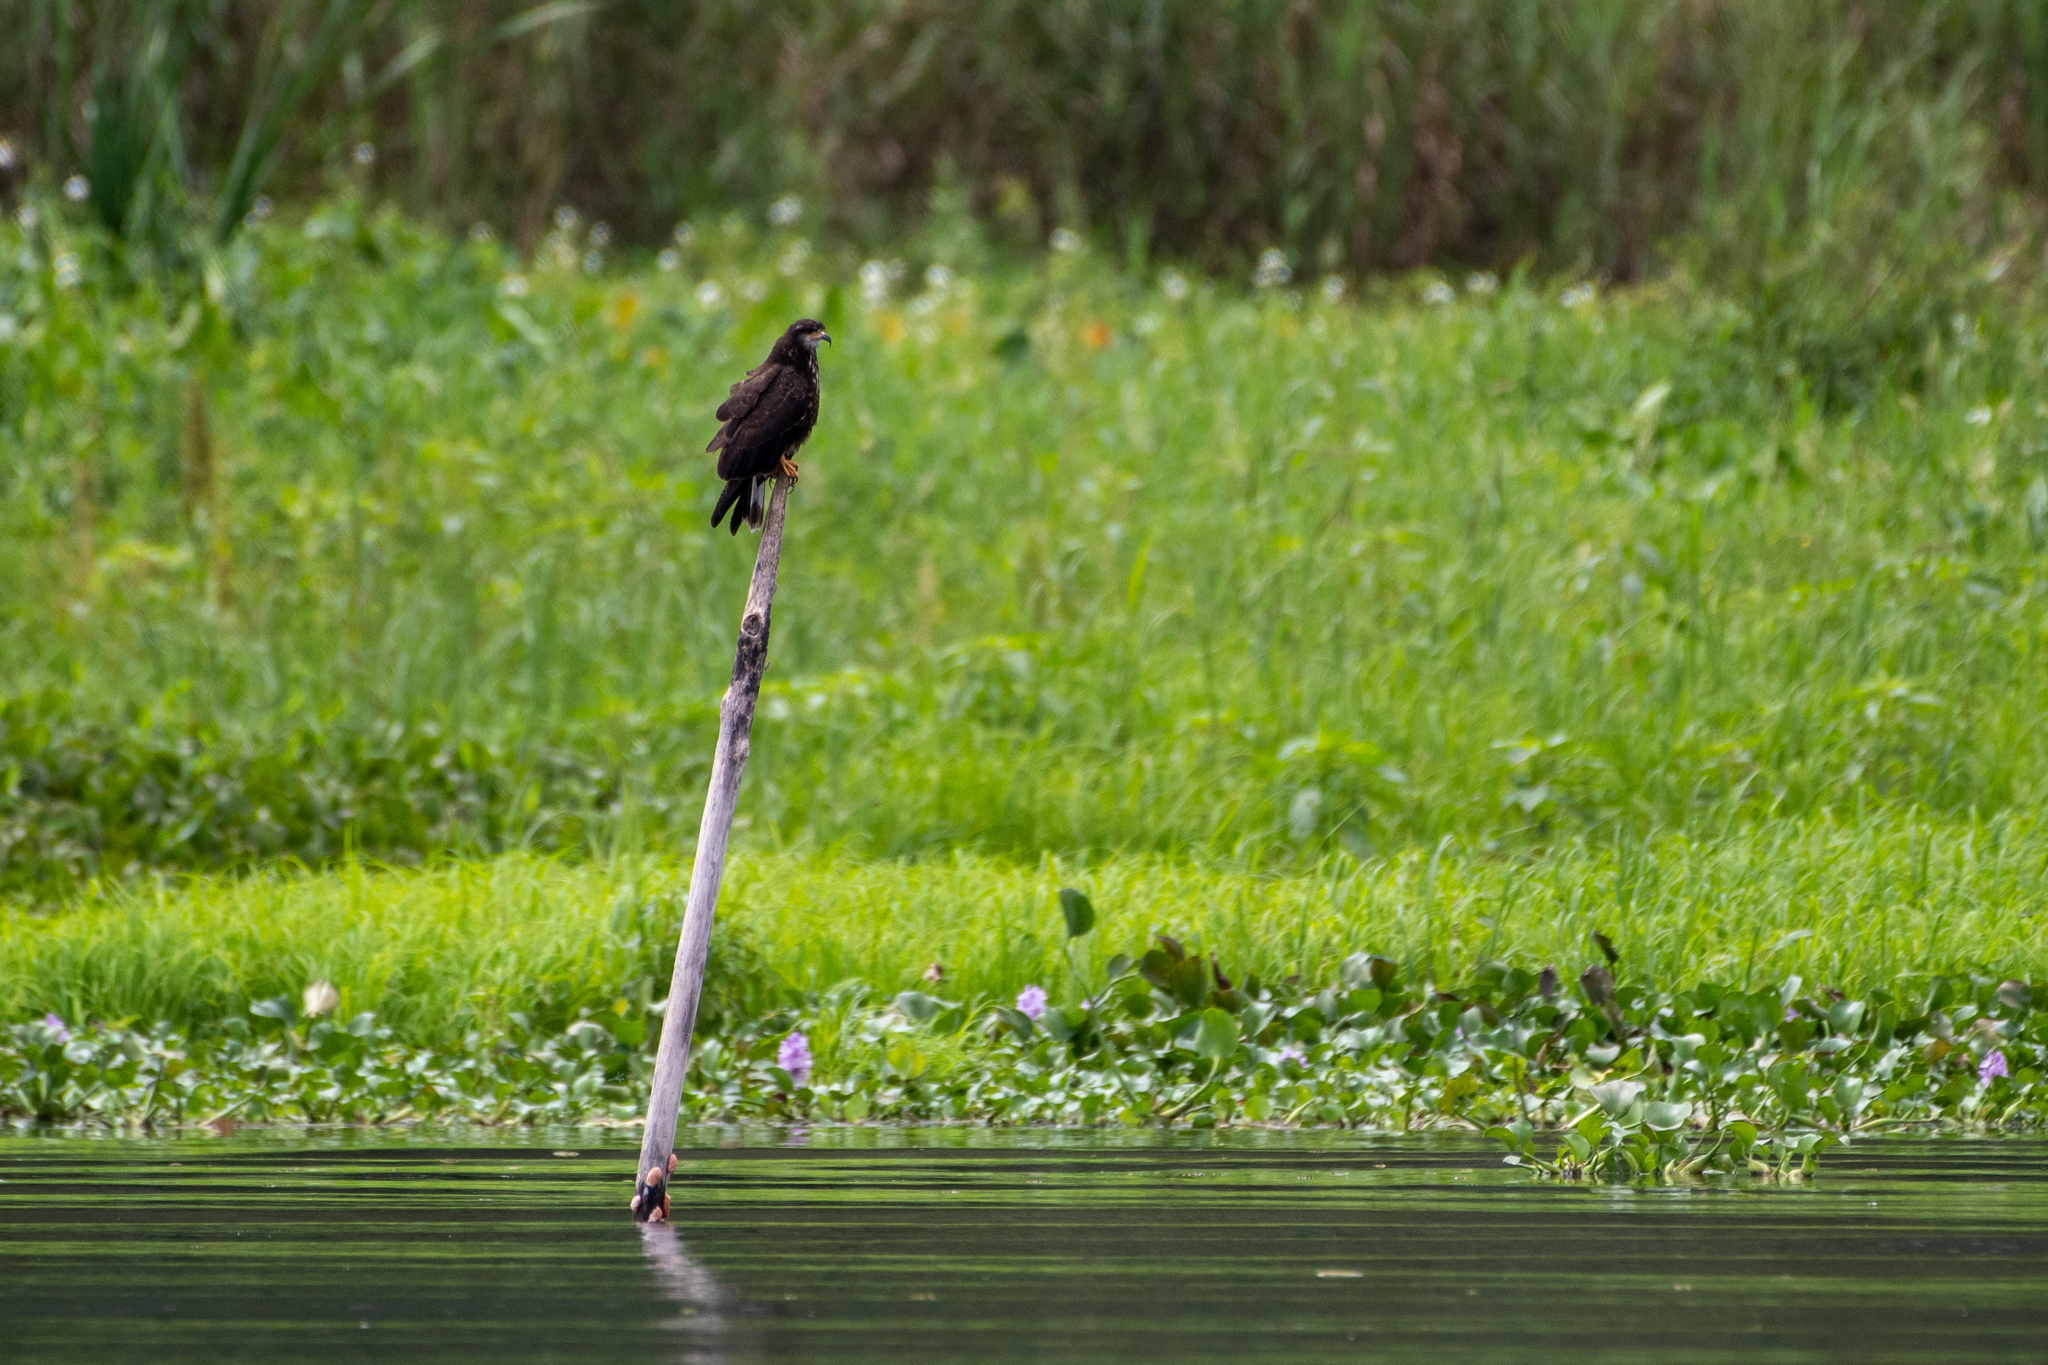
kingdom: Animalia
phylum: Chordata
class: Aves
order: Accipitriformes
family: Accipitridae
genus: Rostrhamus
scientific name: Rostrhamus sociabilis
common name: Snail kite
